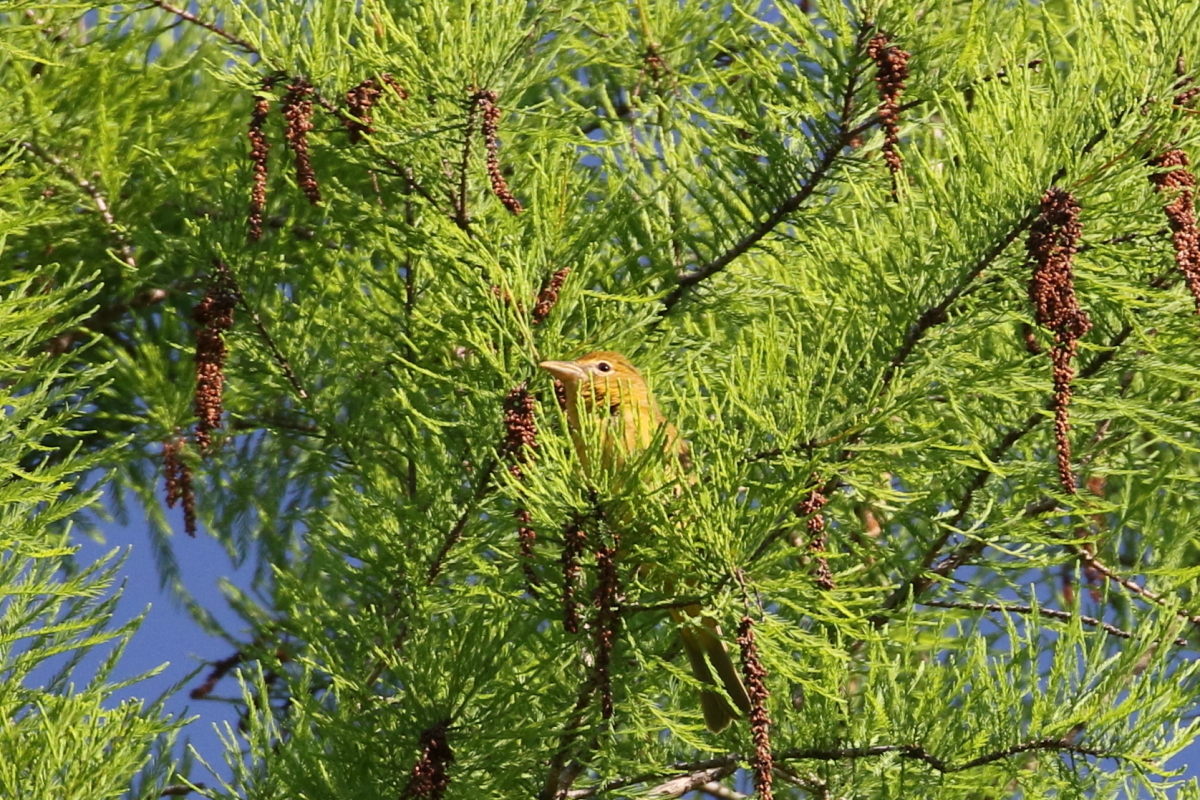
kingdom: Animalia
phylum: Chordata
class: Aves
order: Passeriformes
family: Cardinalidae
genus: Piranga
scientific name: Piranga rubra
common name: Summer tanager
